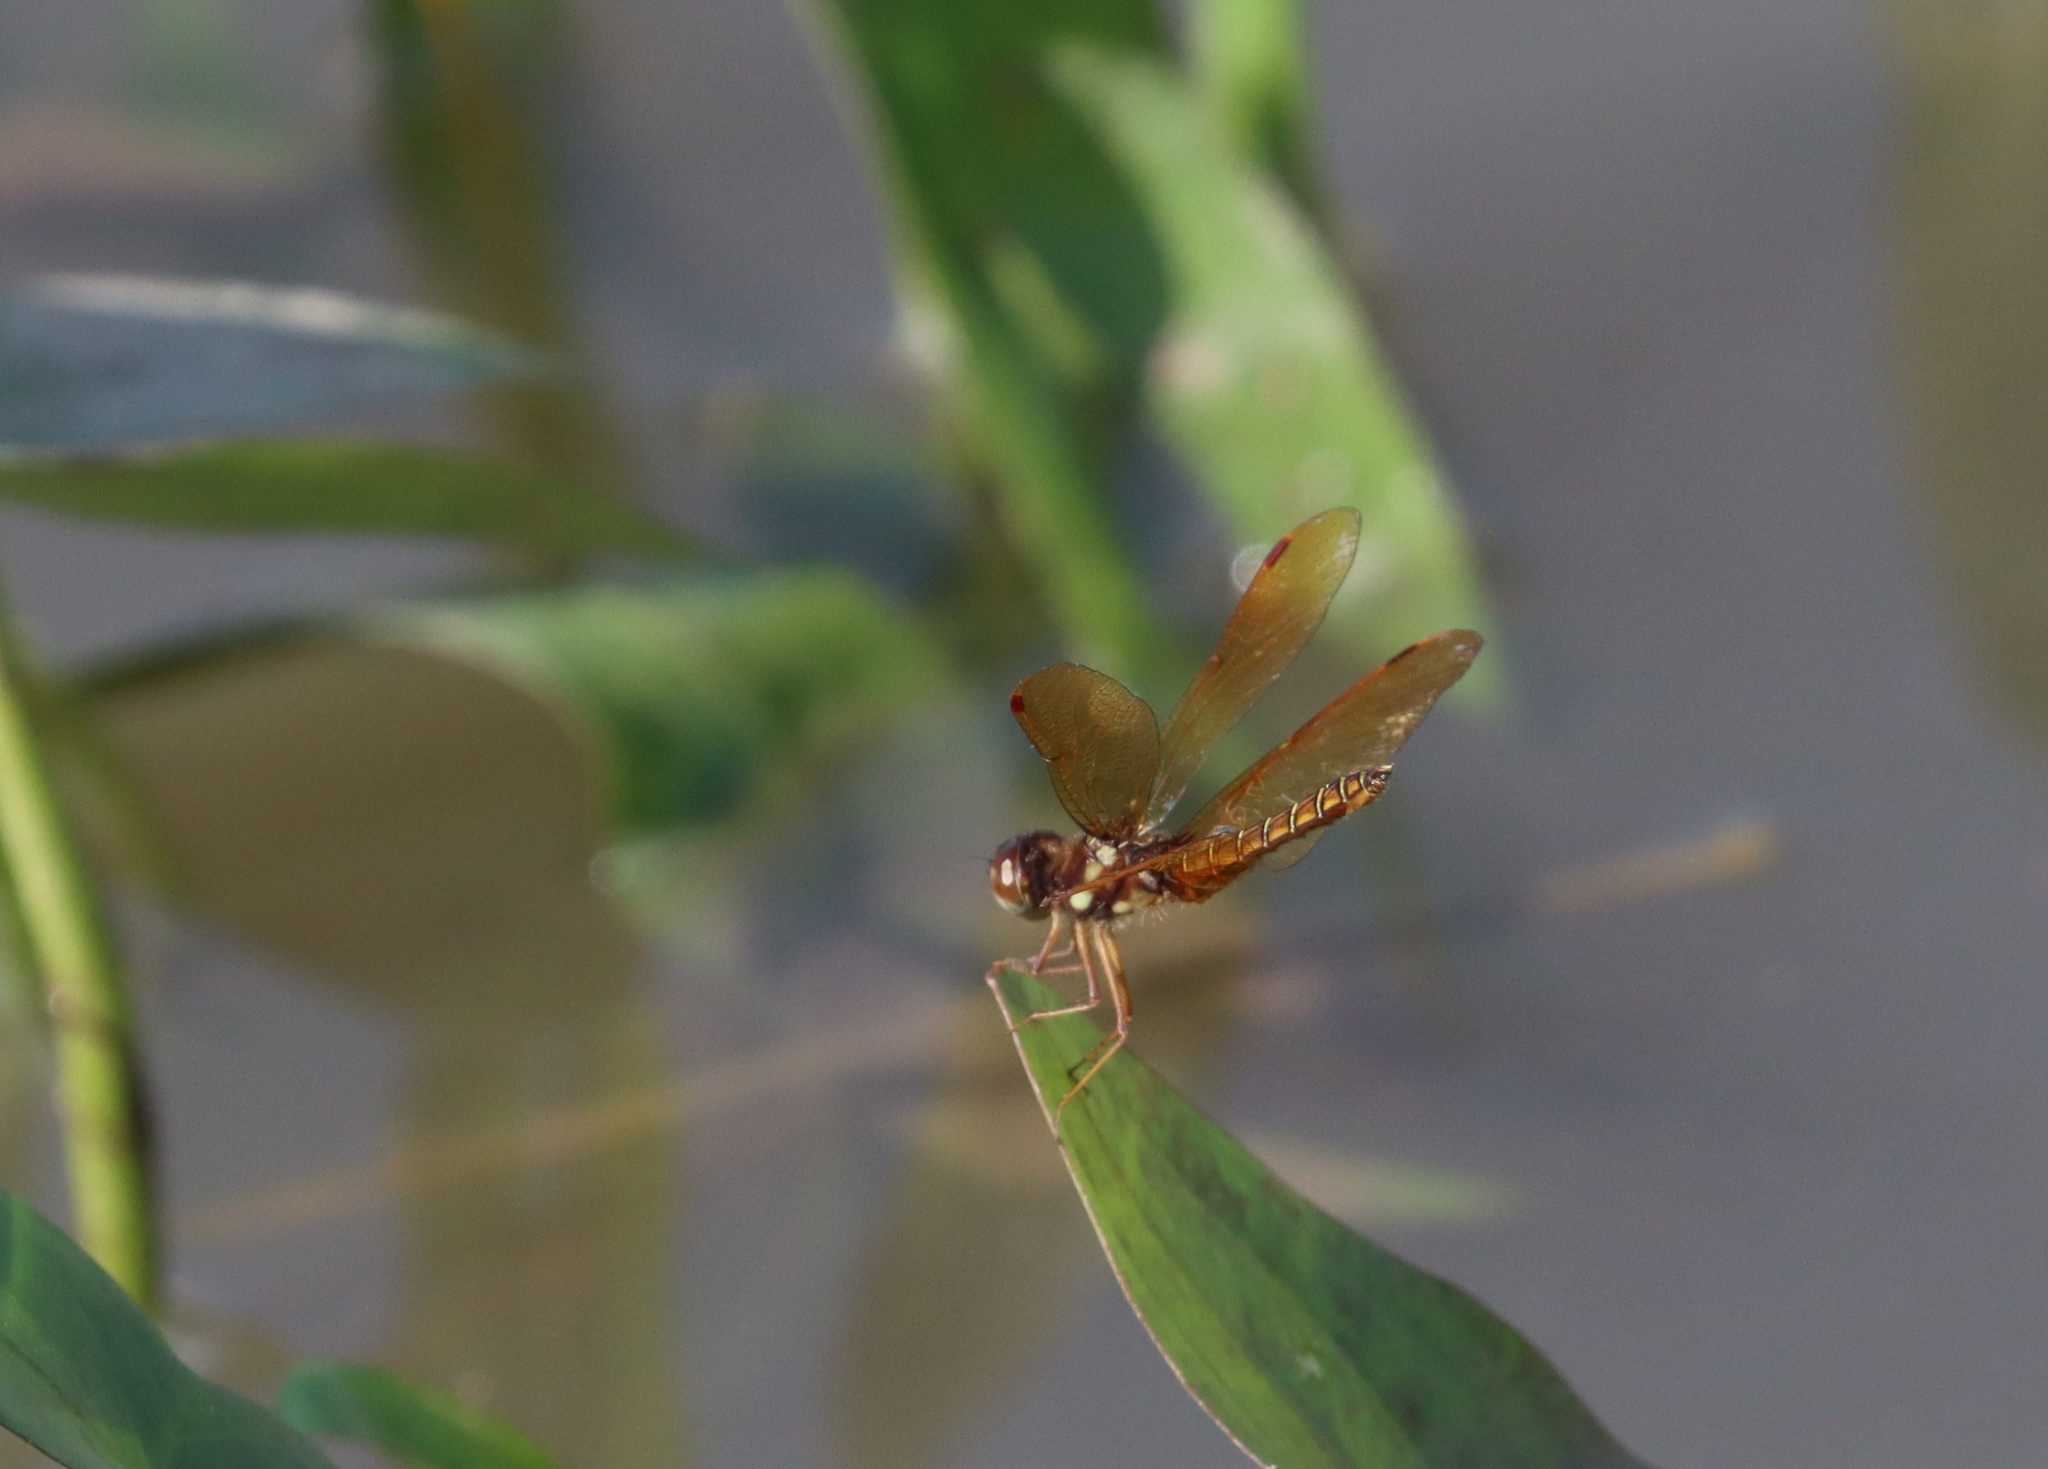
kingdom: Animalia
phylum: Arthropoda
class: Insecta
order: Odonata
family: Libellulidae
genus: Perithemis
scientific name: Perithemis tenera
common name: Eastern amberwing
